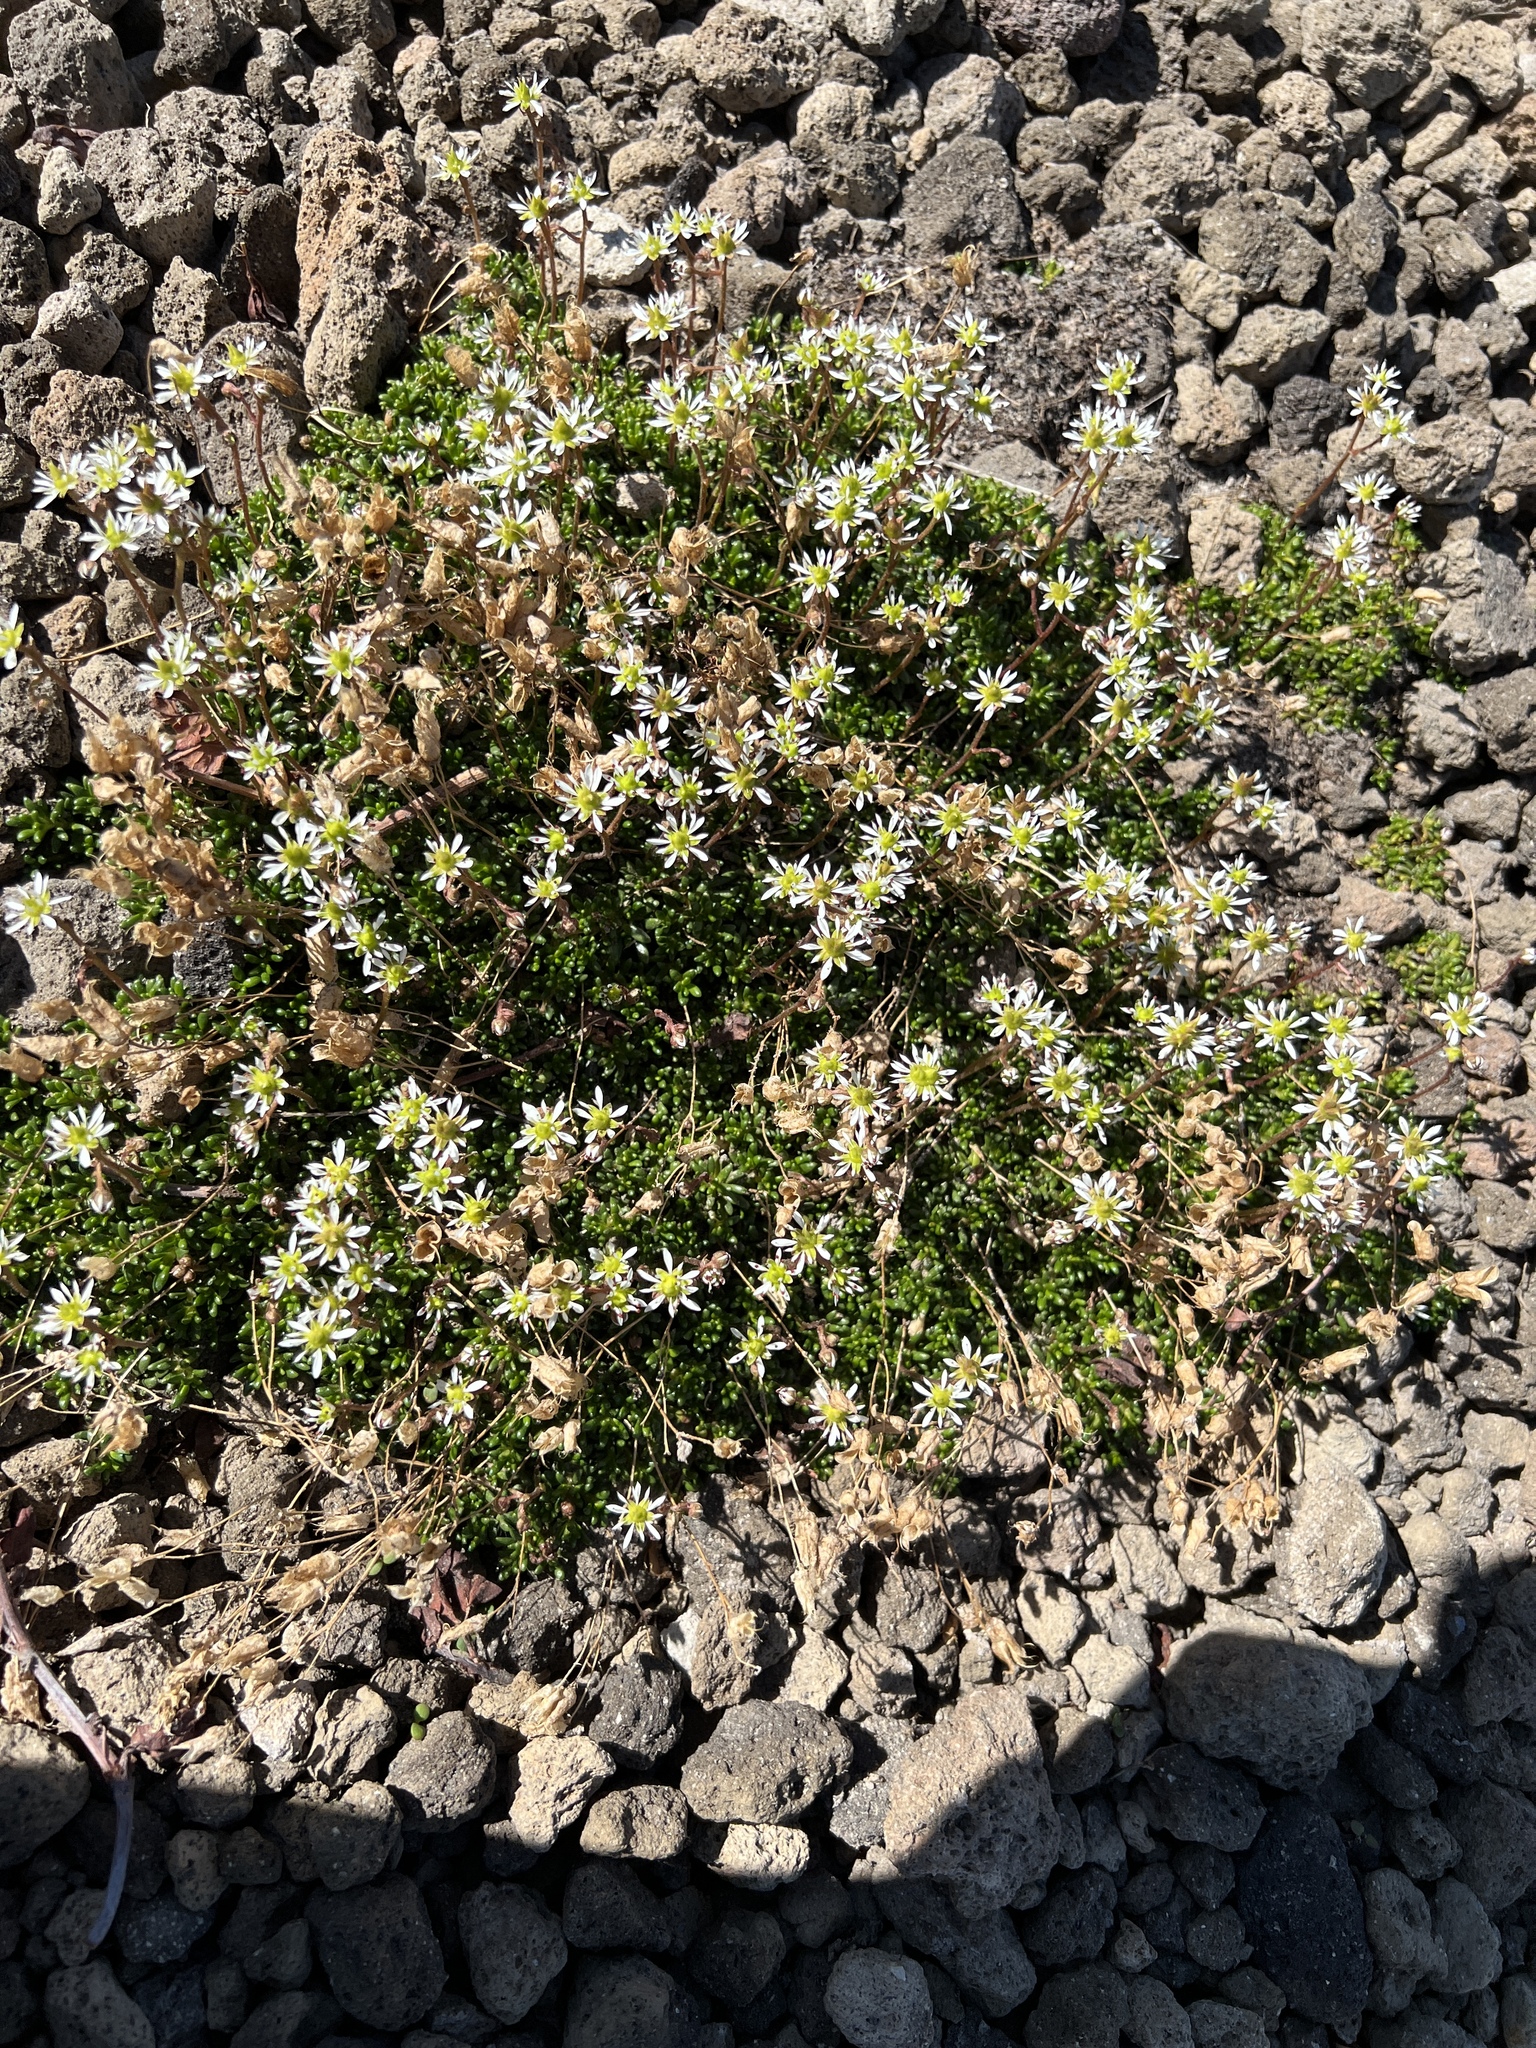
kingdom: Plantae
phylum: Tracheophyta
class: Magnoliopsida
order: Saxifragales
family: Saxifragaceae
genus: Micranthes
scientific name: Micranthes tolmiei
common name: Tolmie's saxifrage
